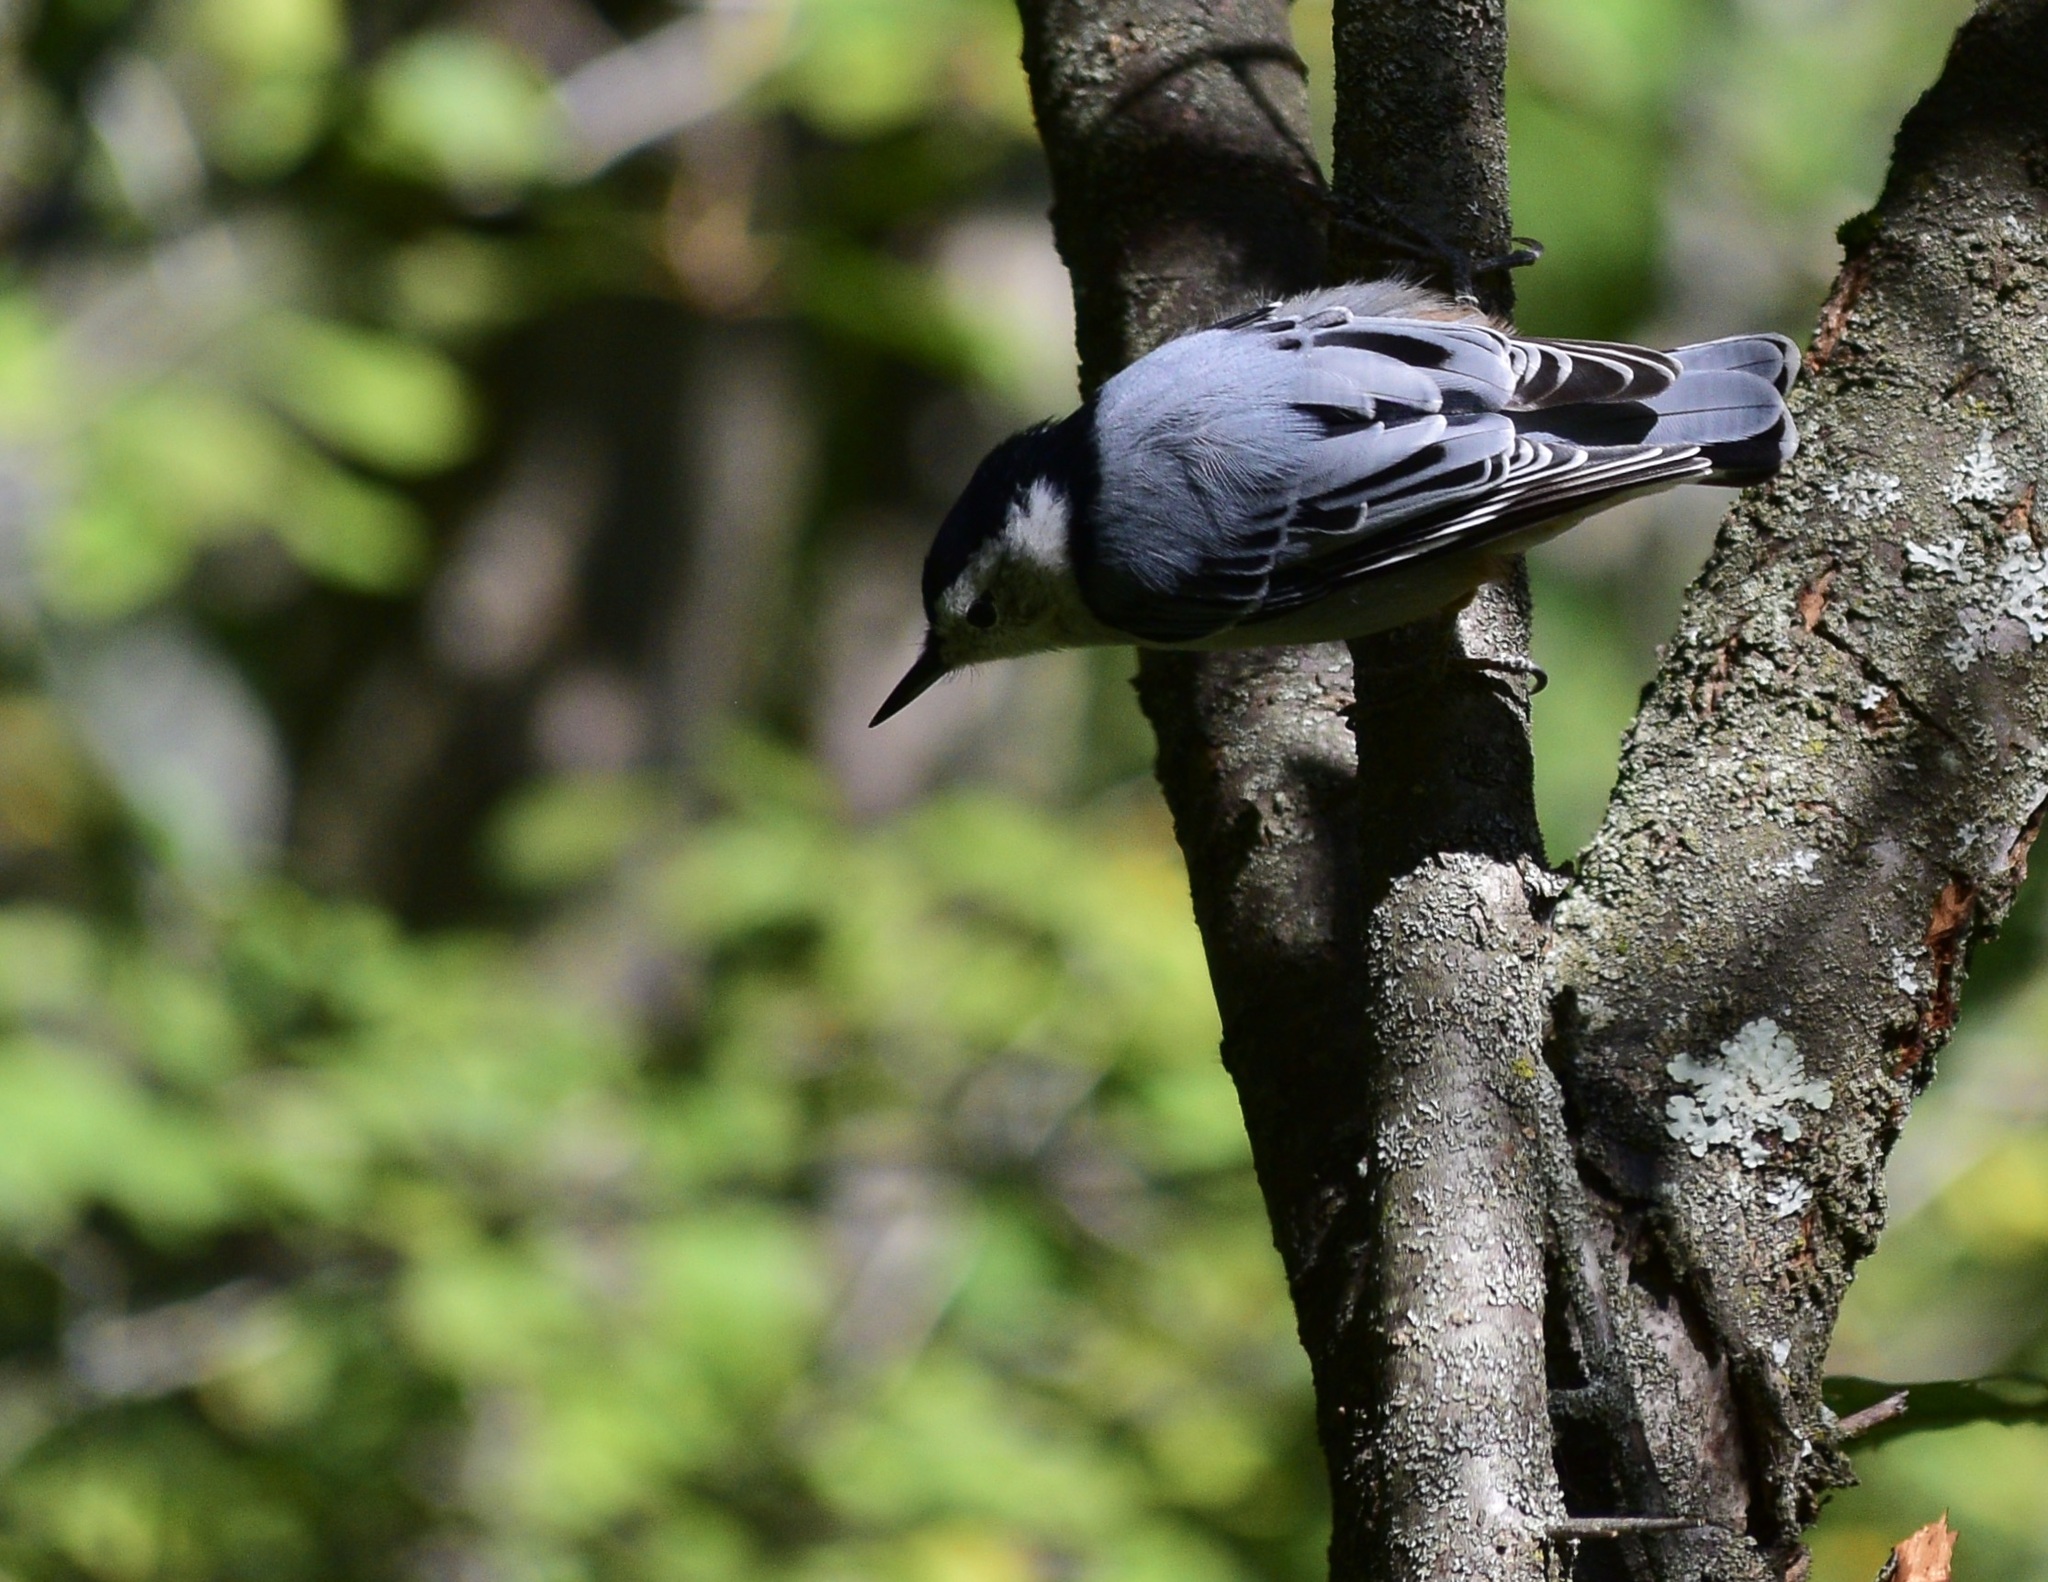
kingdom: Animalia
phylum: Chordata
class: Aves
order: Passeriformes
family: Sittidae
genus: Sitta
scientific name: Sitta carolinensis
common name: White-breasted nuthatch
